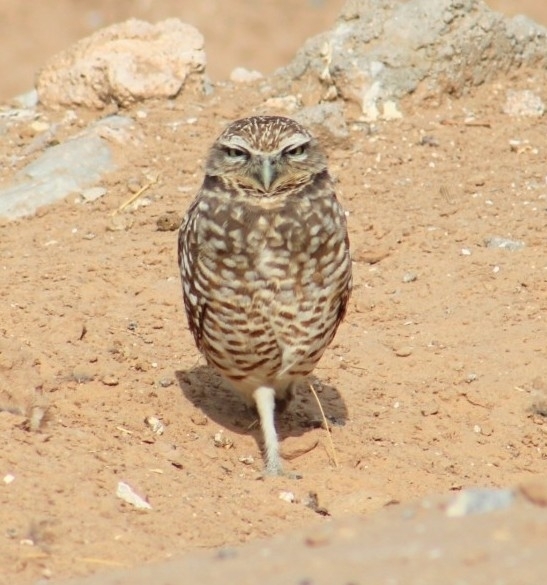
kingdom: Animalia
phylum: Chordata
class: Aves
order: Strigiformes
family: Strigidae
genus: Athene
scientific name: Athene cunicularia
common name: Burrowing owl
